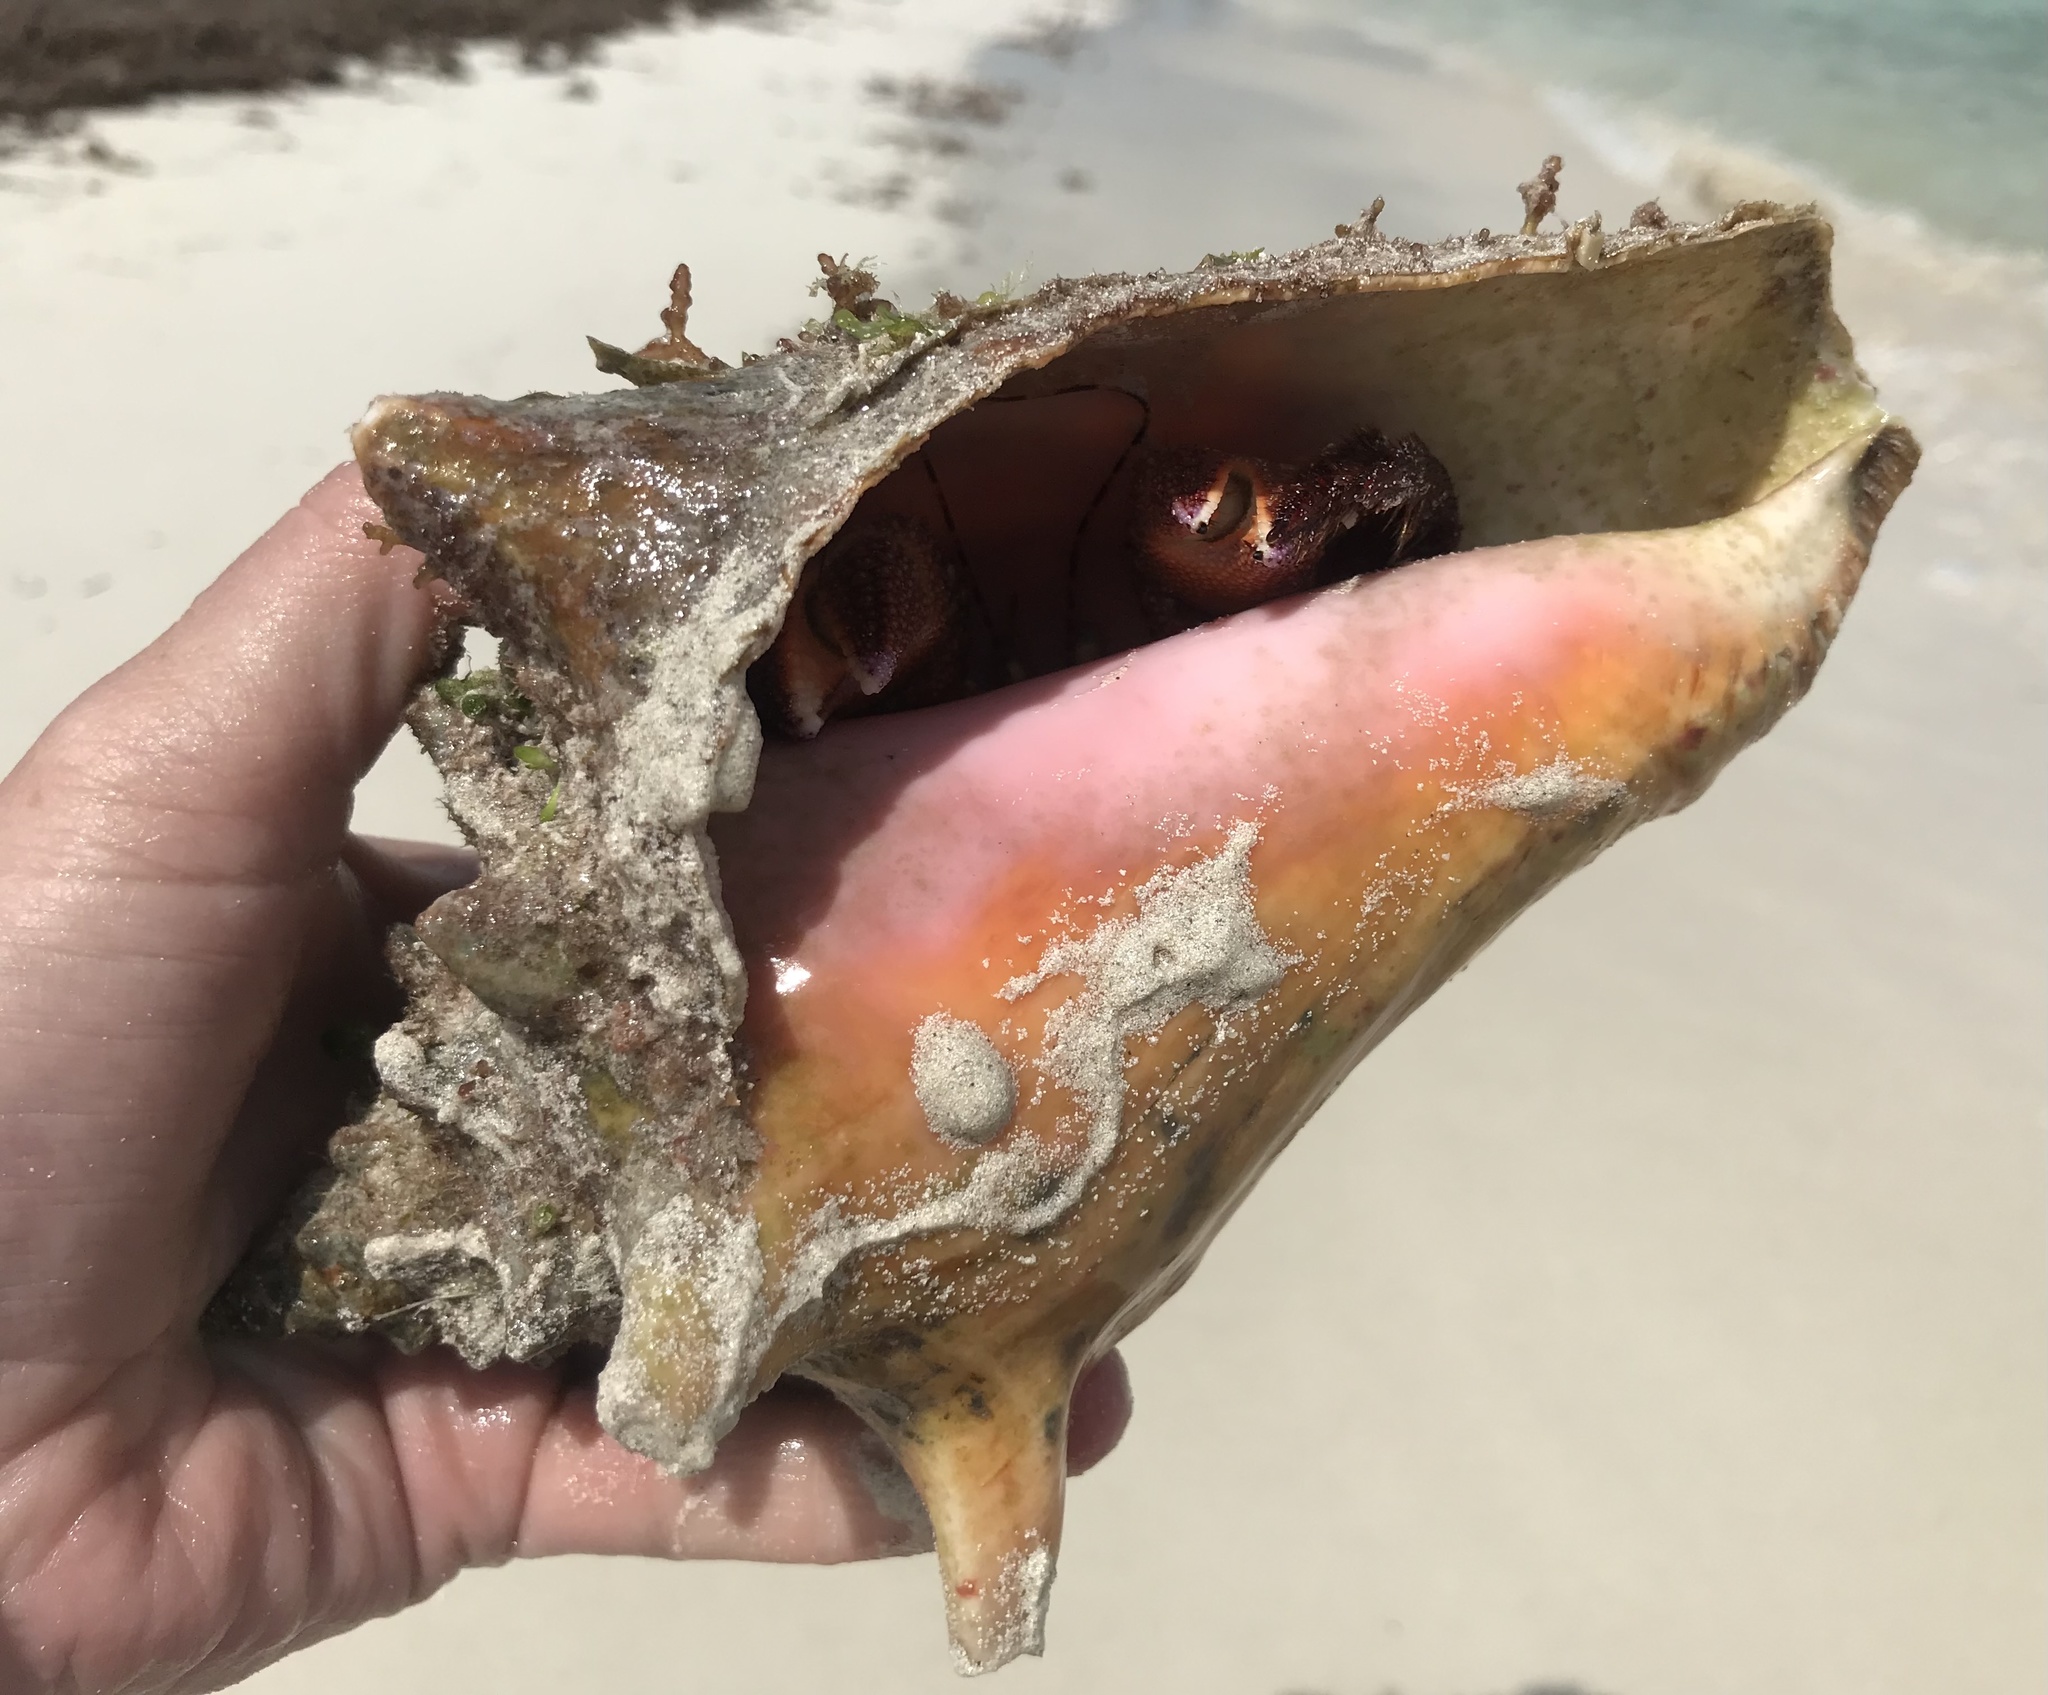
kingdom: Animalia
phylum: Mollusca
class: Gastropoda
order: Littorinimorpha
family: Strombidae
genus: Aliger
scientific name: Aliger gigas
